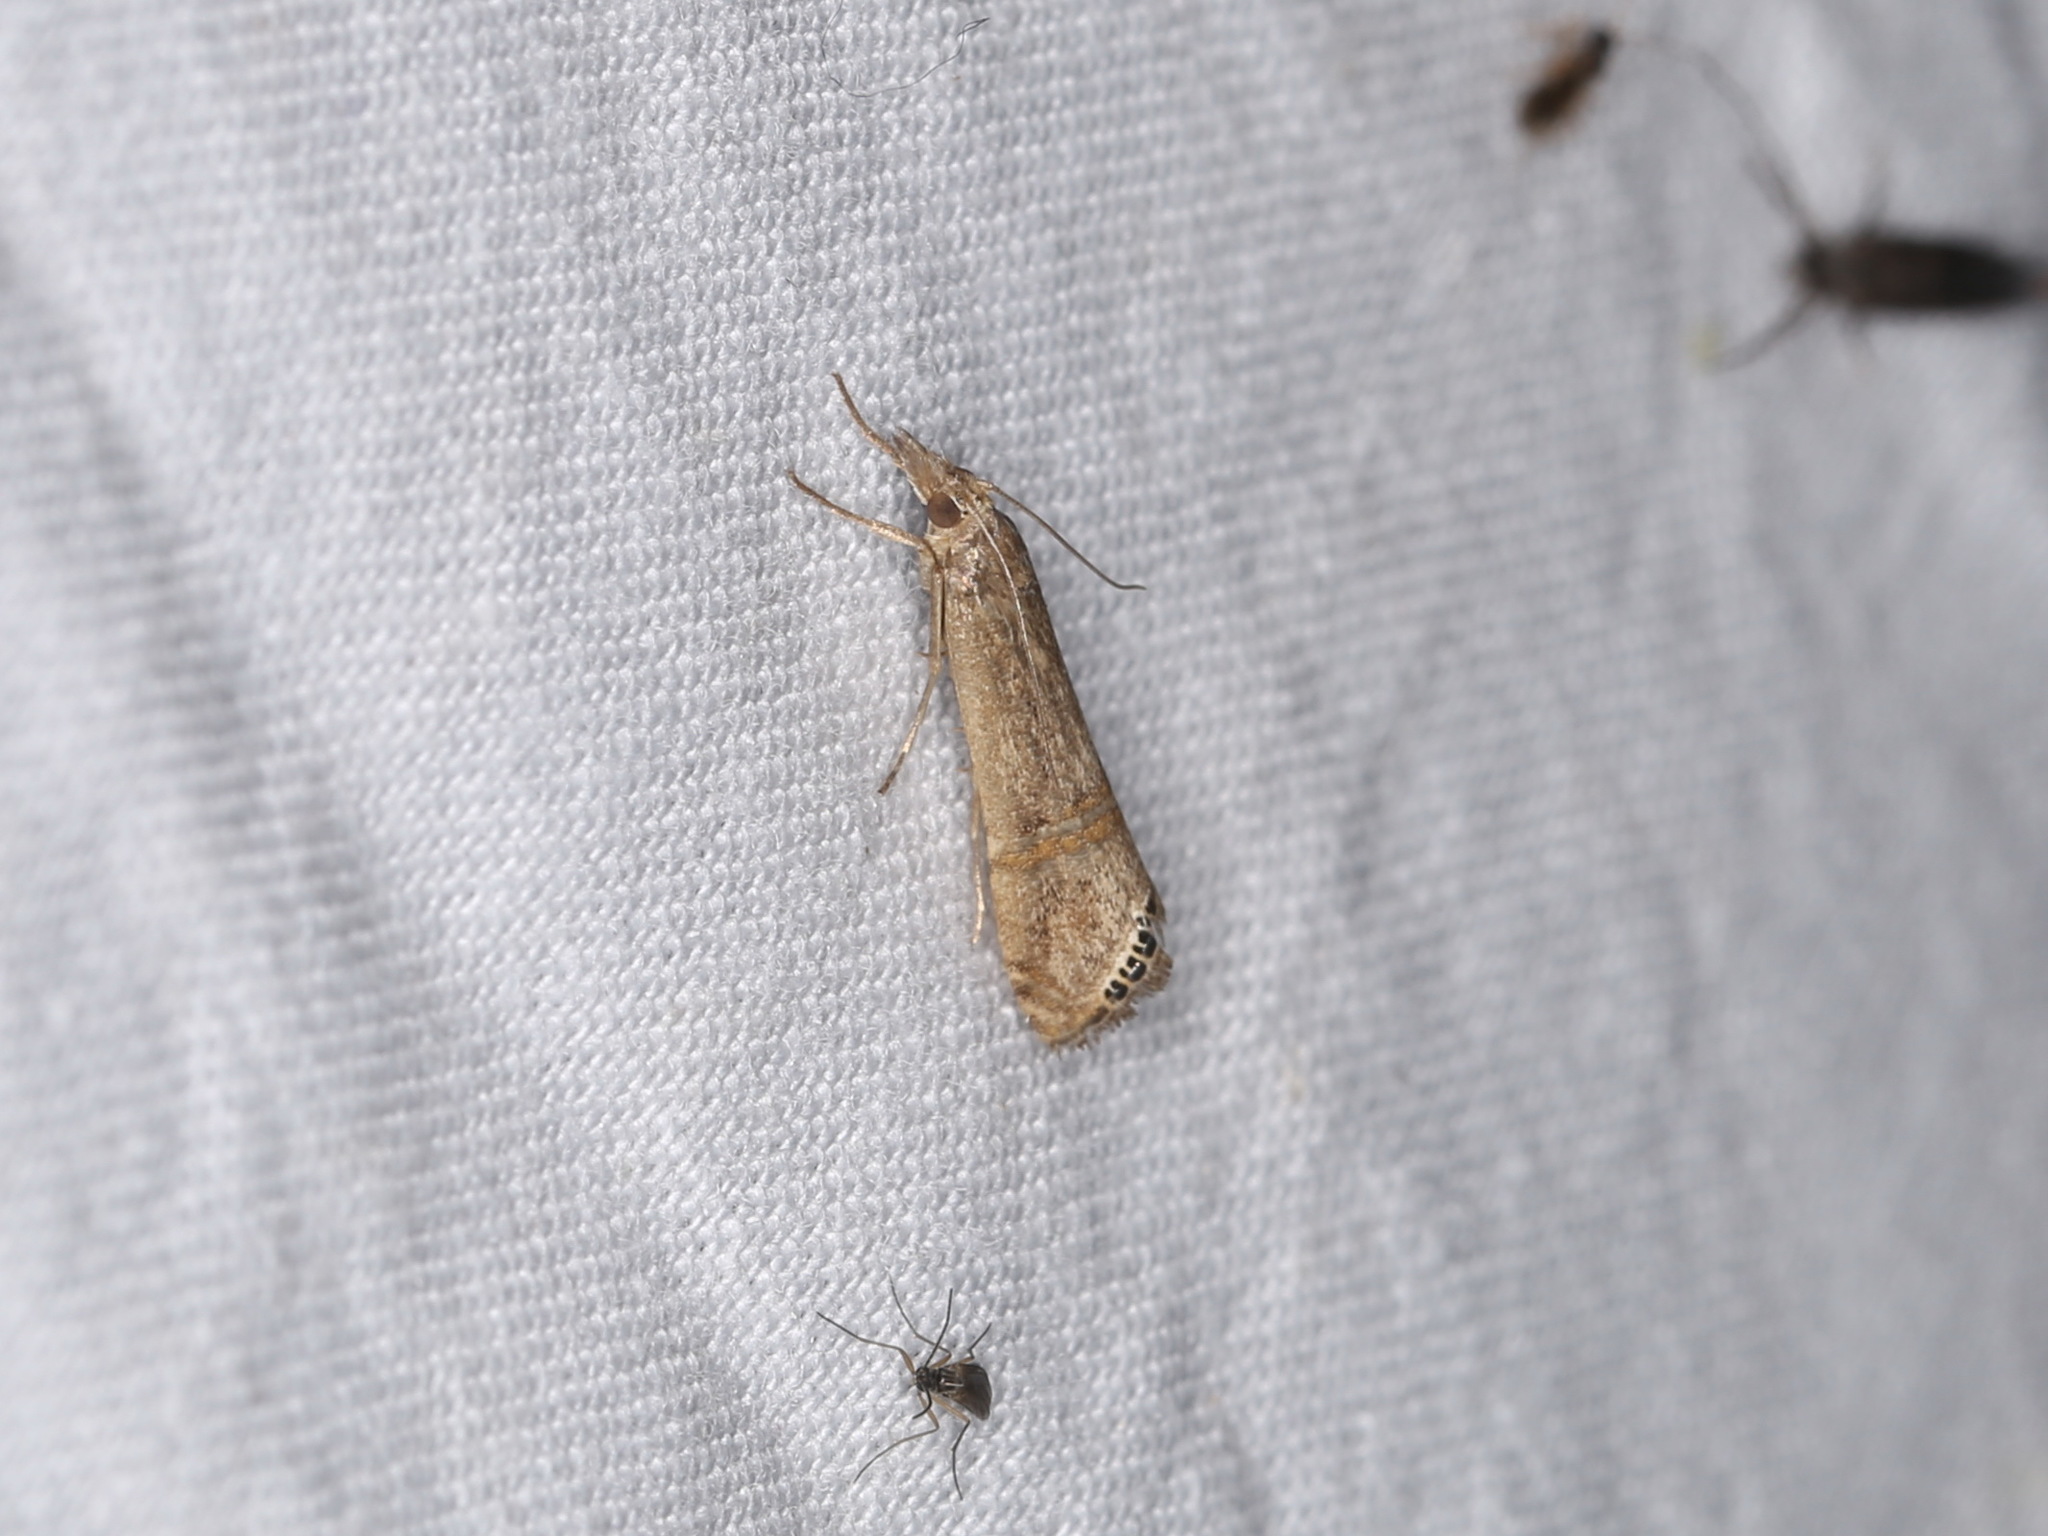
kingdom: Animalia
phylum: Arthropoda
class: Insecta
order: Lepidoptera
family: Crambidae
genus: Euchromius
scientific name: Euchromius ocellea
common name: Necklace veneer moth
